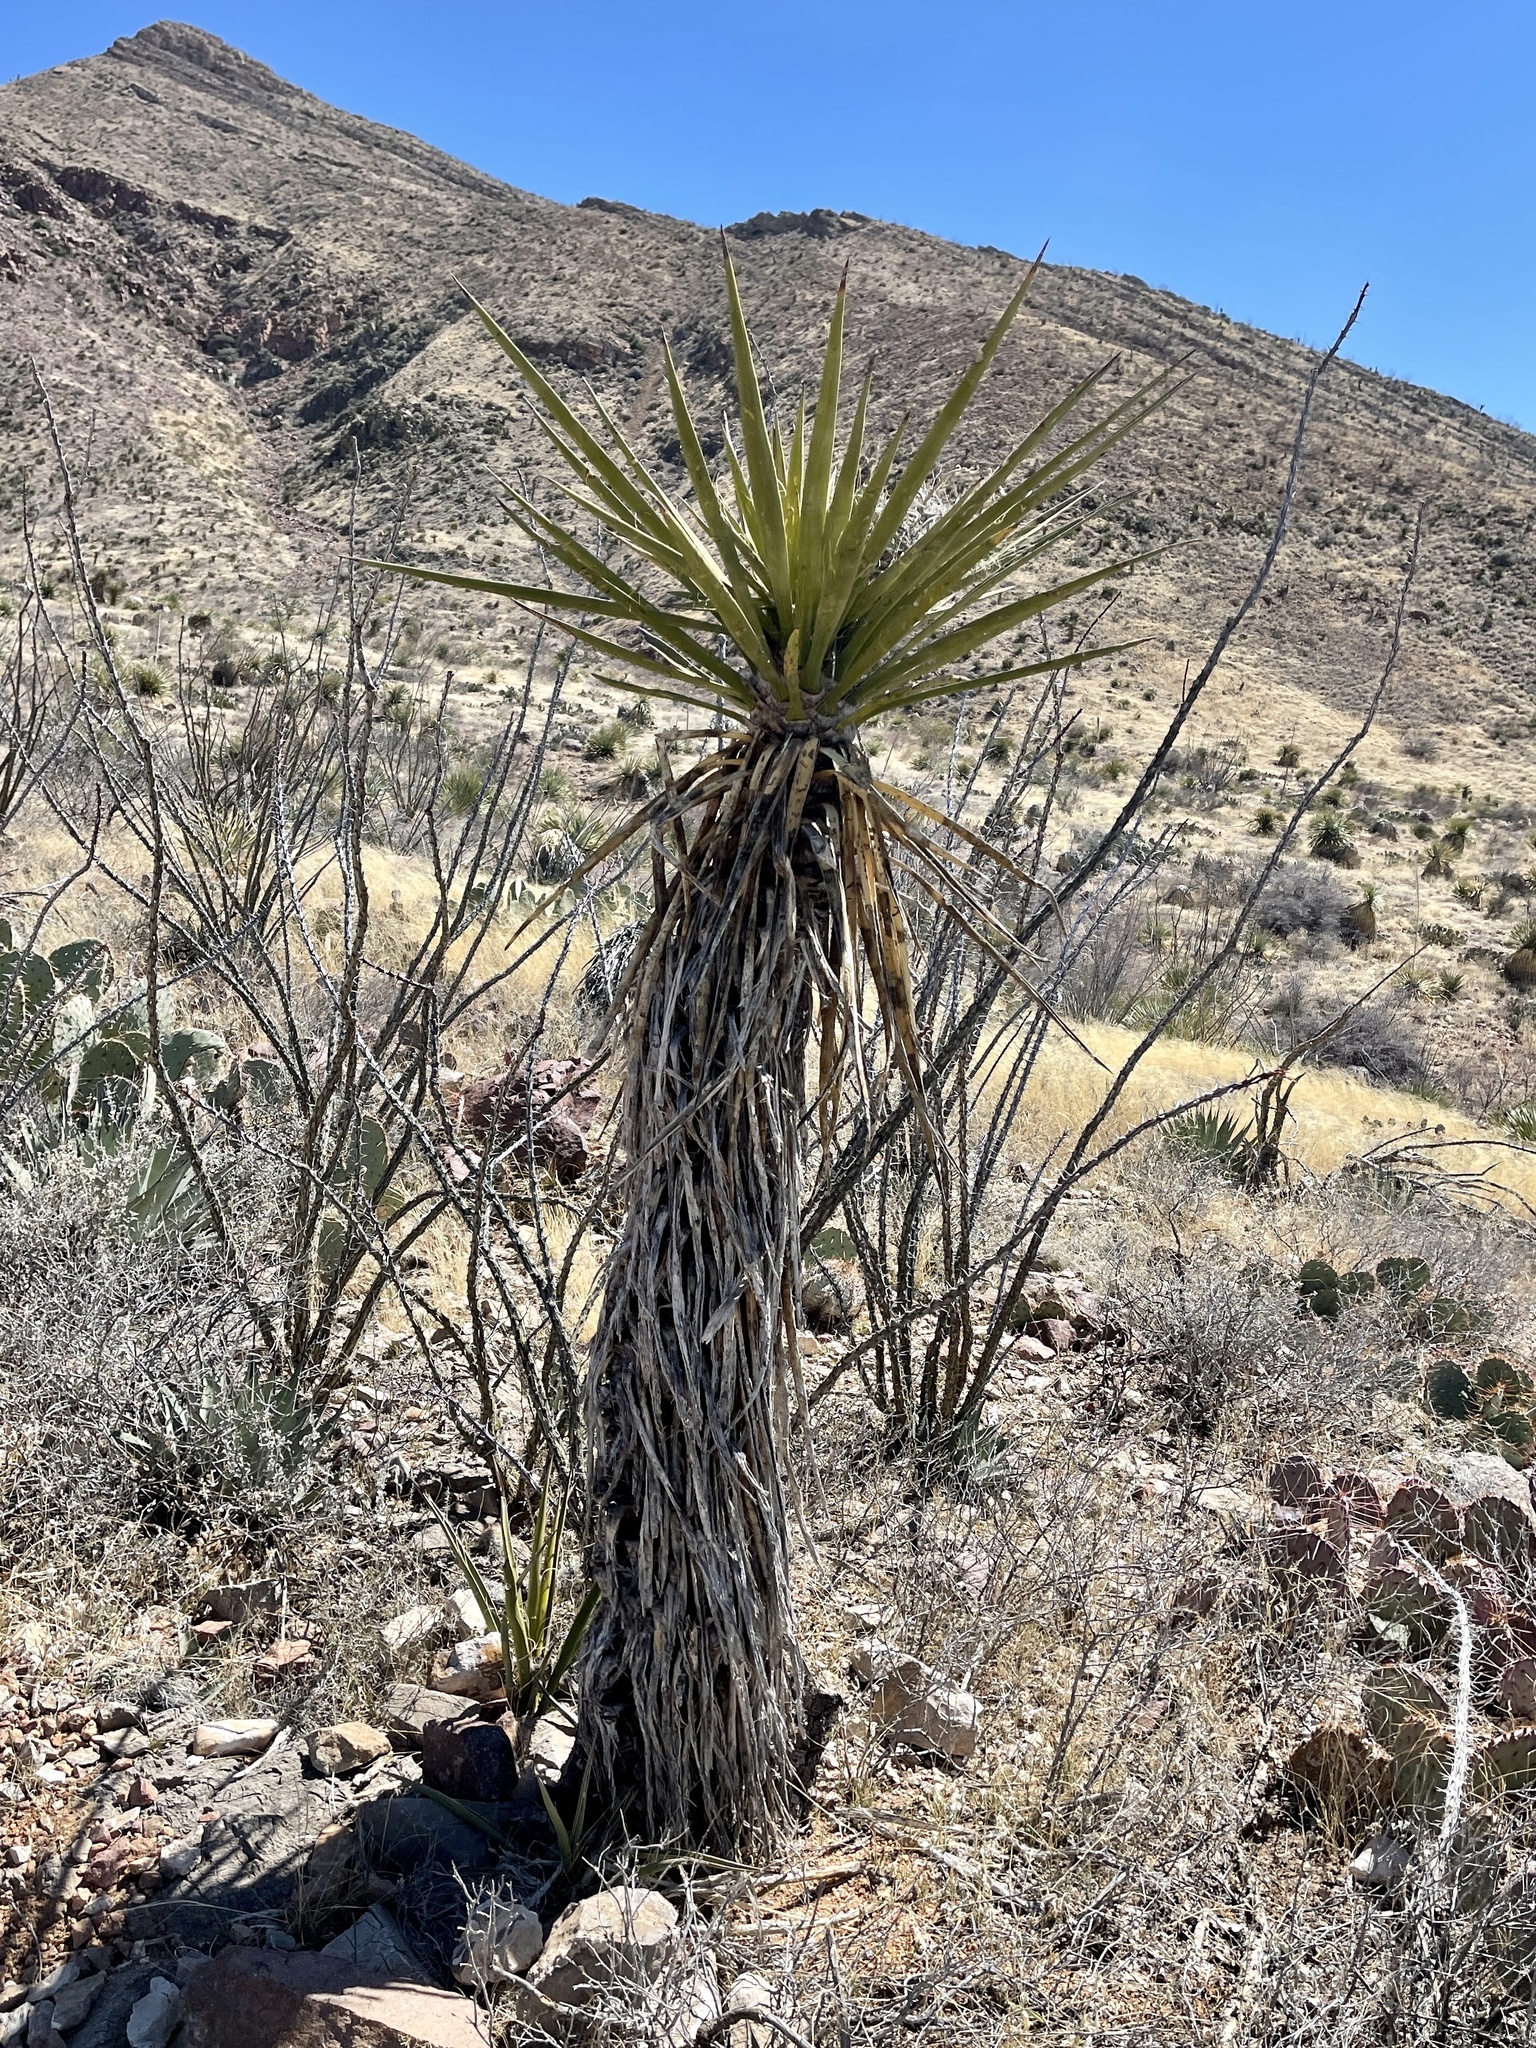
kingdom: Plantae
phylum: Tracheophyta
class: Liliopsida
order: Asparagales
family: Asparagaceae
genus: Yucca
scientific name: Yucca treculiana
